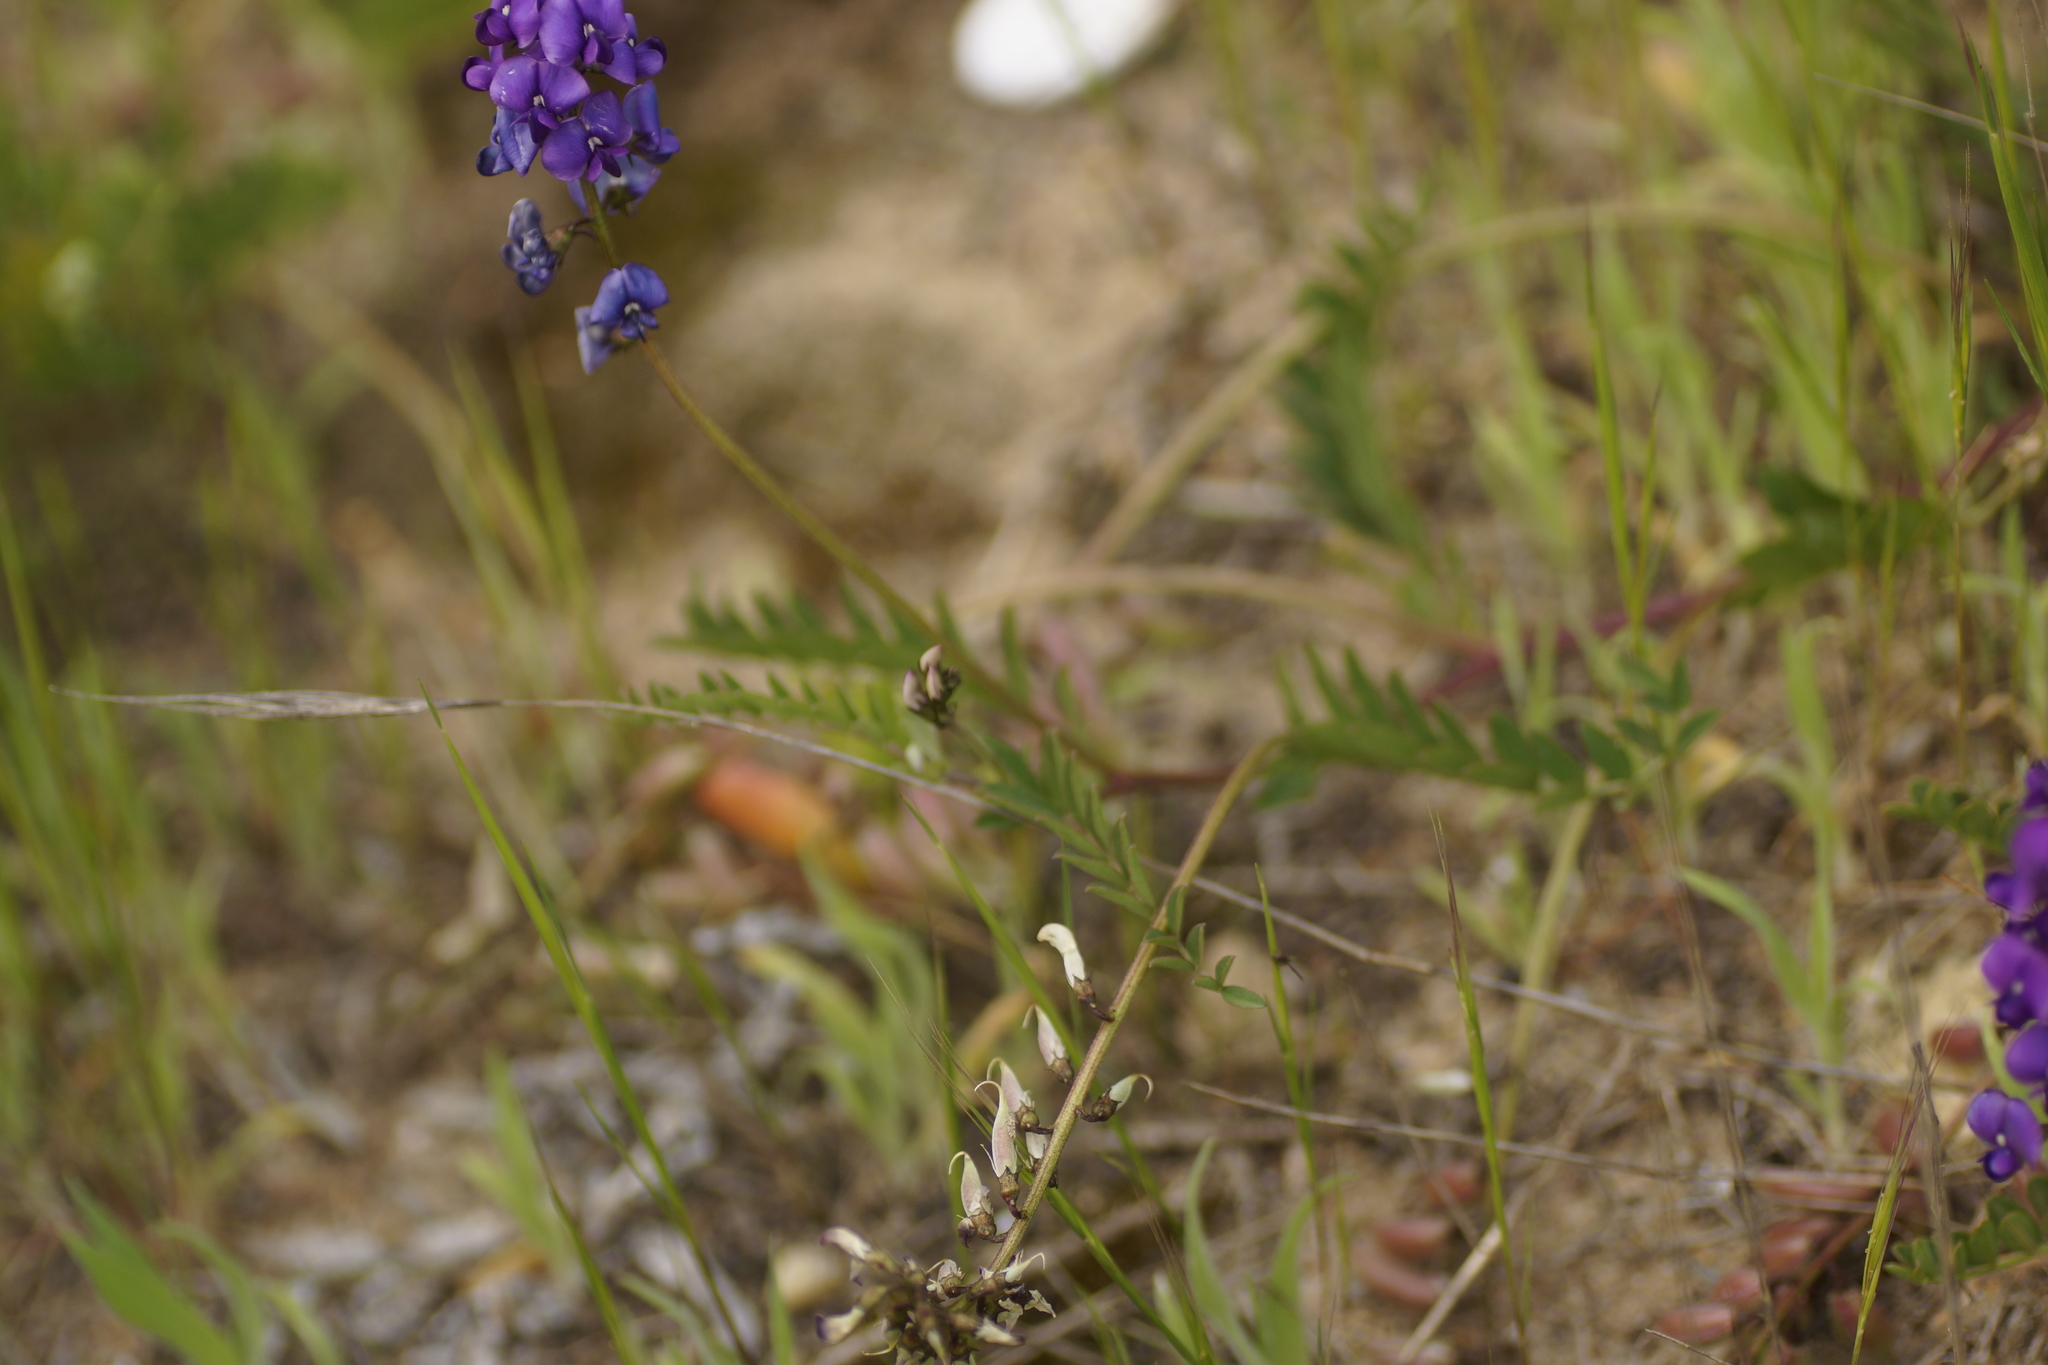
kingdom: Plantae
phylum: Tracheophyta
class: Magnoliopsida
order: Fabales
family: Fabaceae
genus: Swainsona
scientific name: Swainsona lessertiifolia
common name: Bog-pea
